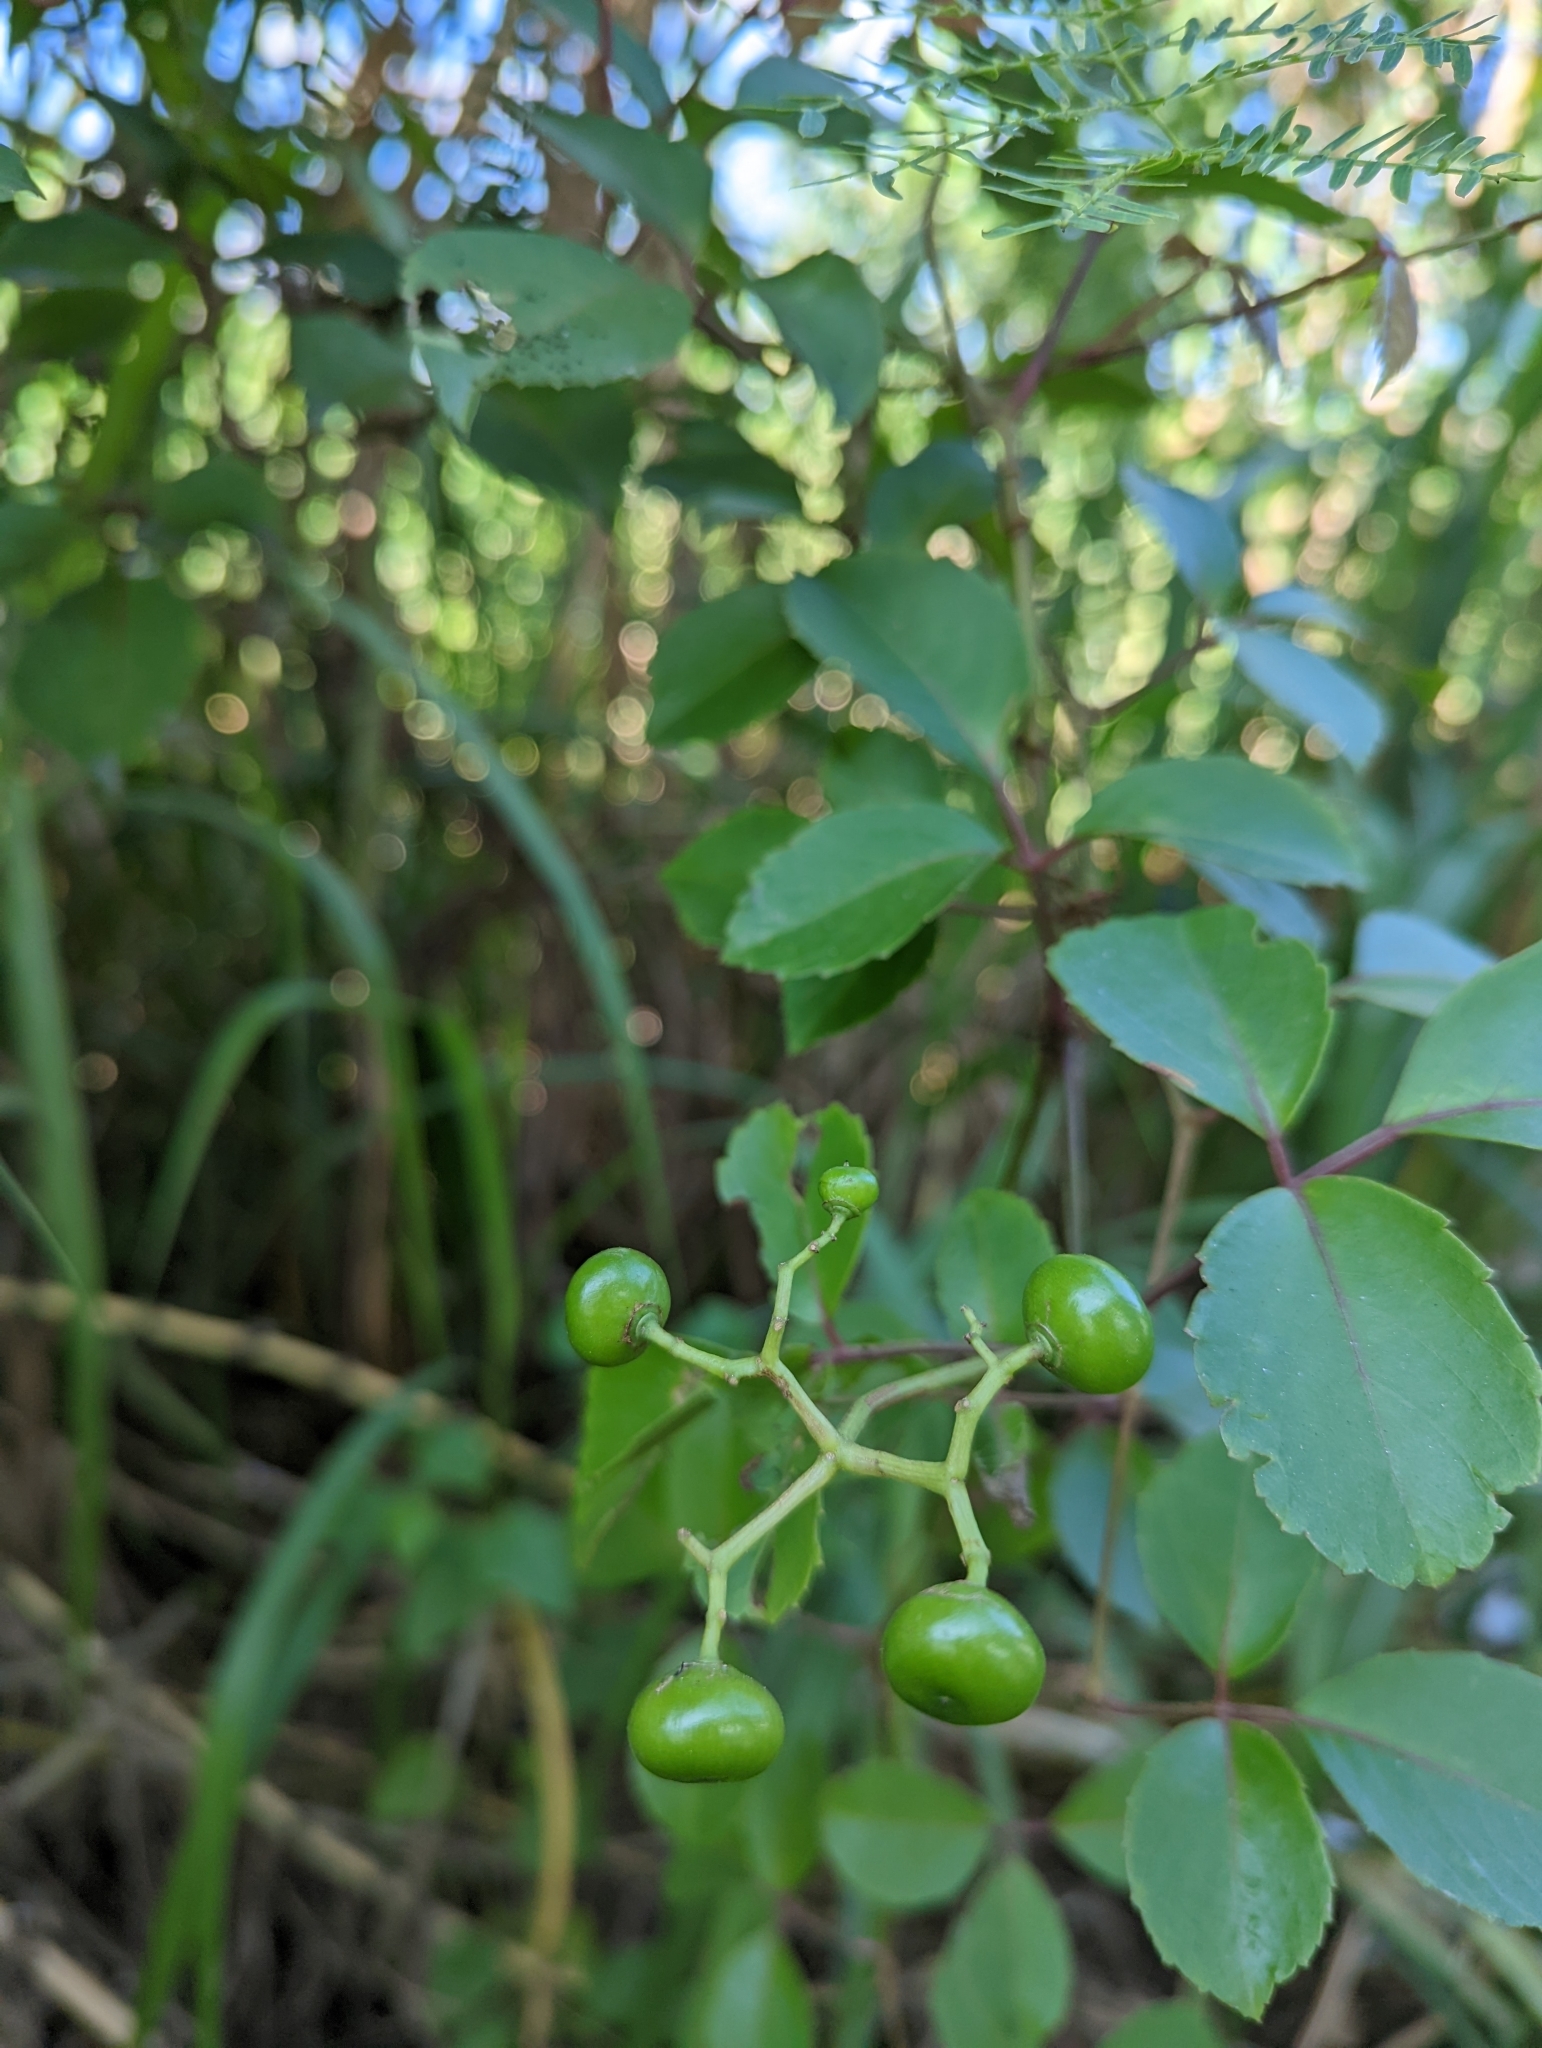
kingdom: Plantae
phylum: Tracheophyta
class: Magnoliopsida
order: Vitales
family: Vitaceae
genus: Causonis
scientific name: Causonis trifolia
